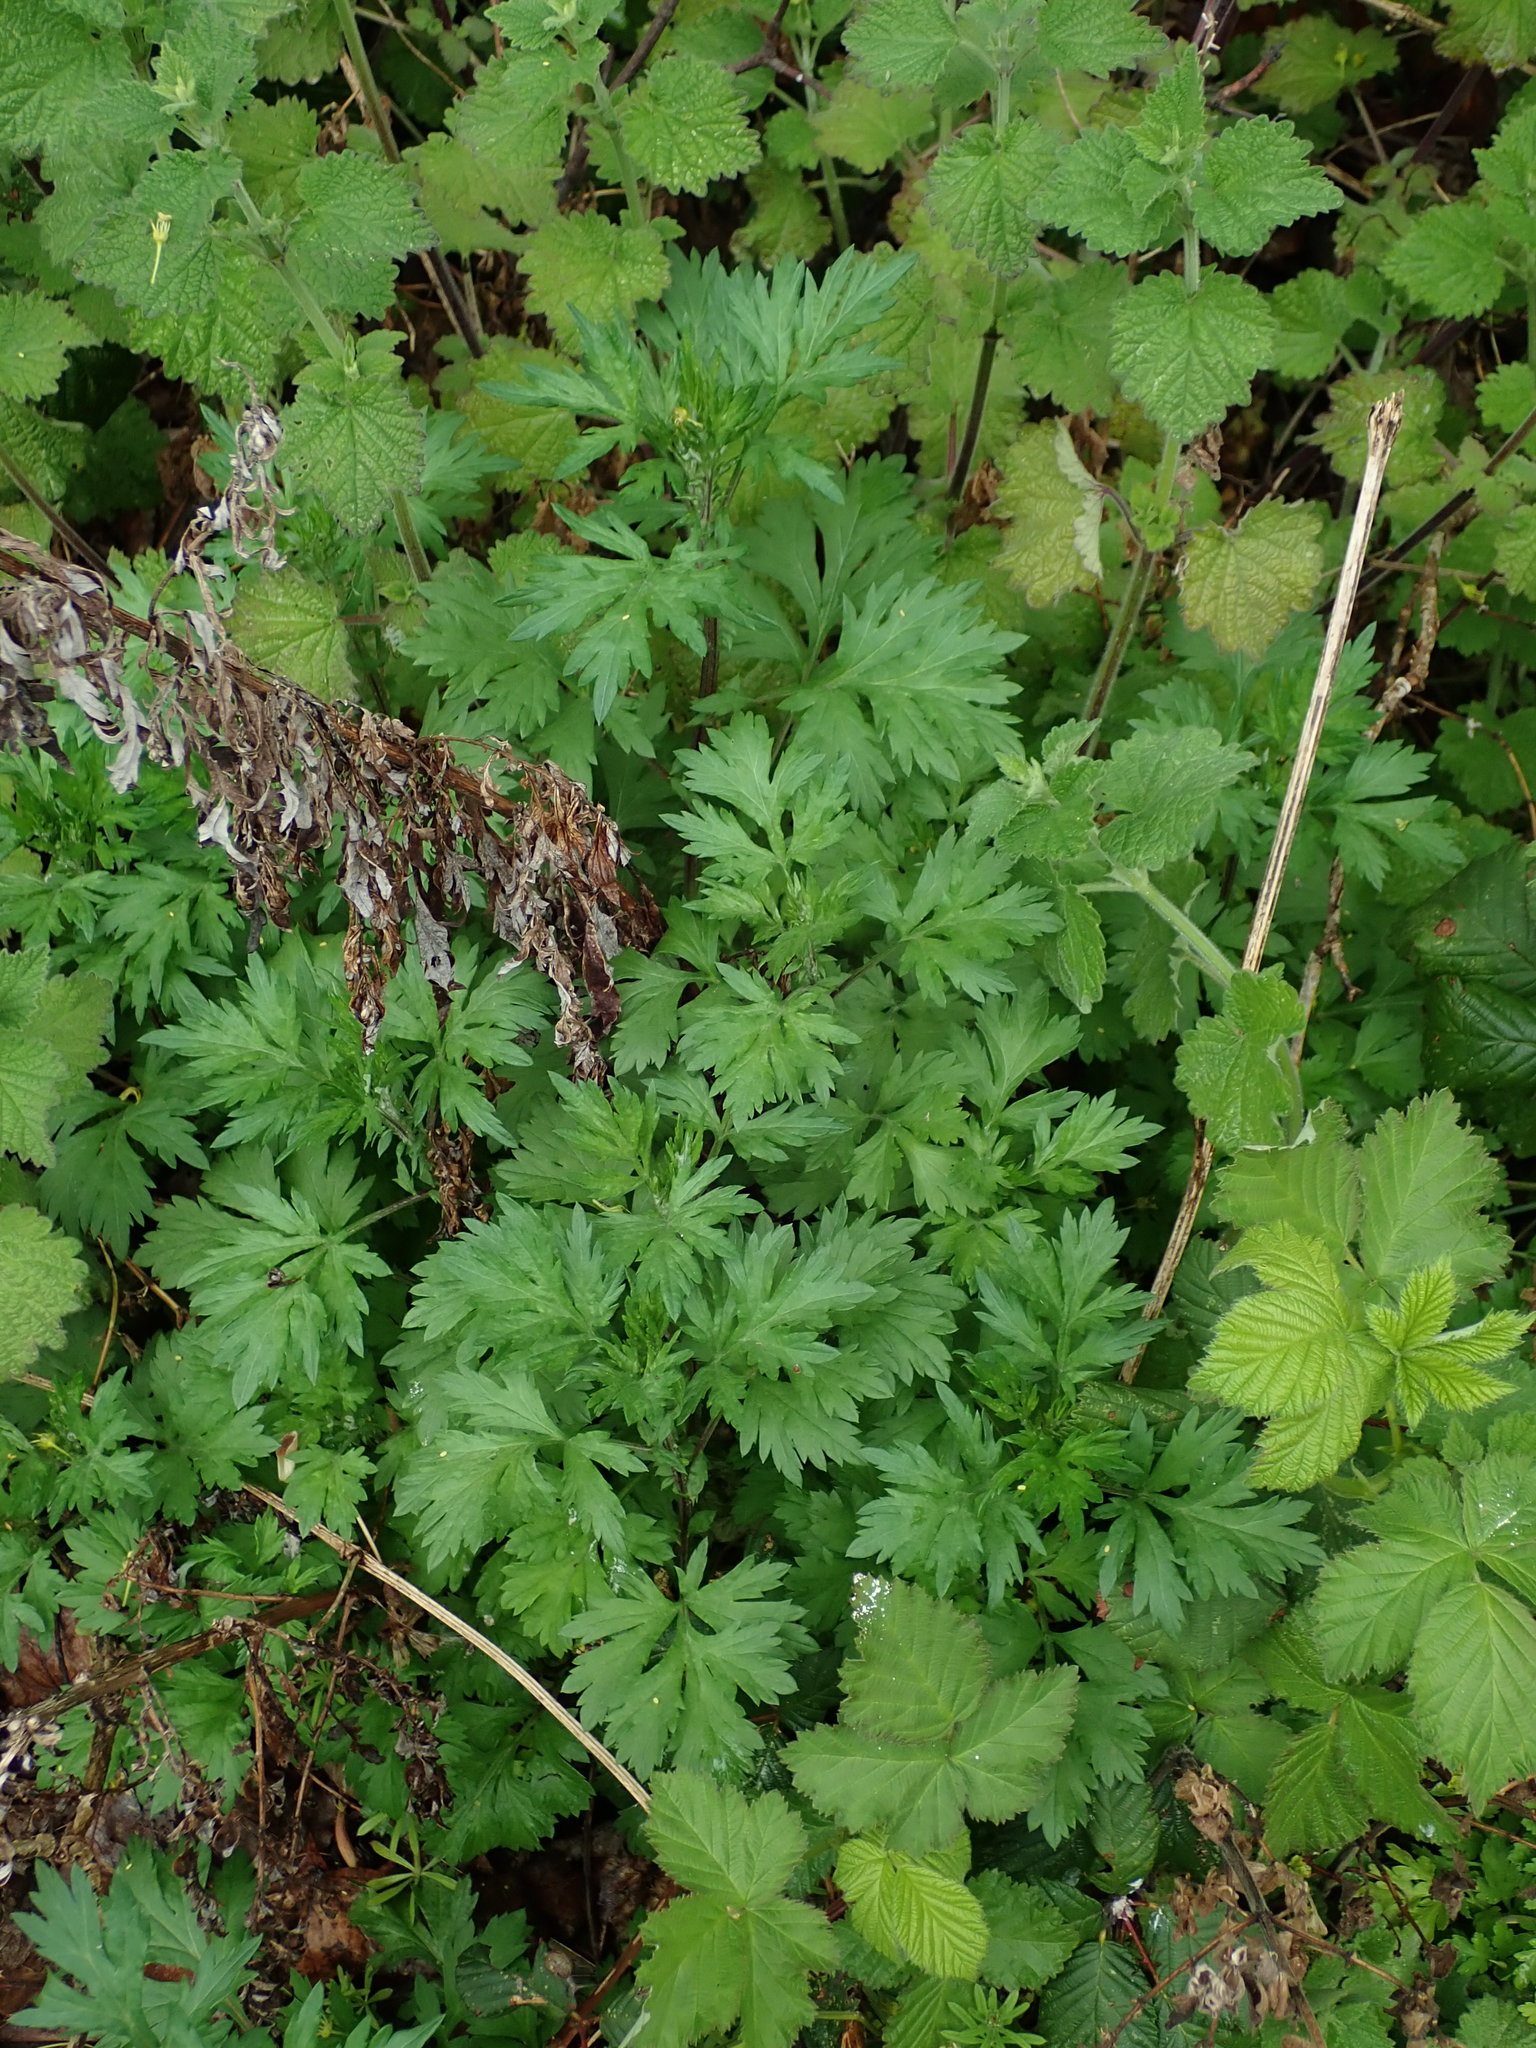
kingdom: Plantae
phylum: Tracheophyta
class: Magnoliopsida
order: Asterales
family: Asteraceae
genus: Artemisia
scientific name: Artemisia vulgaris
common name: Mugwort
